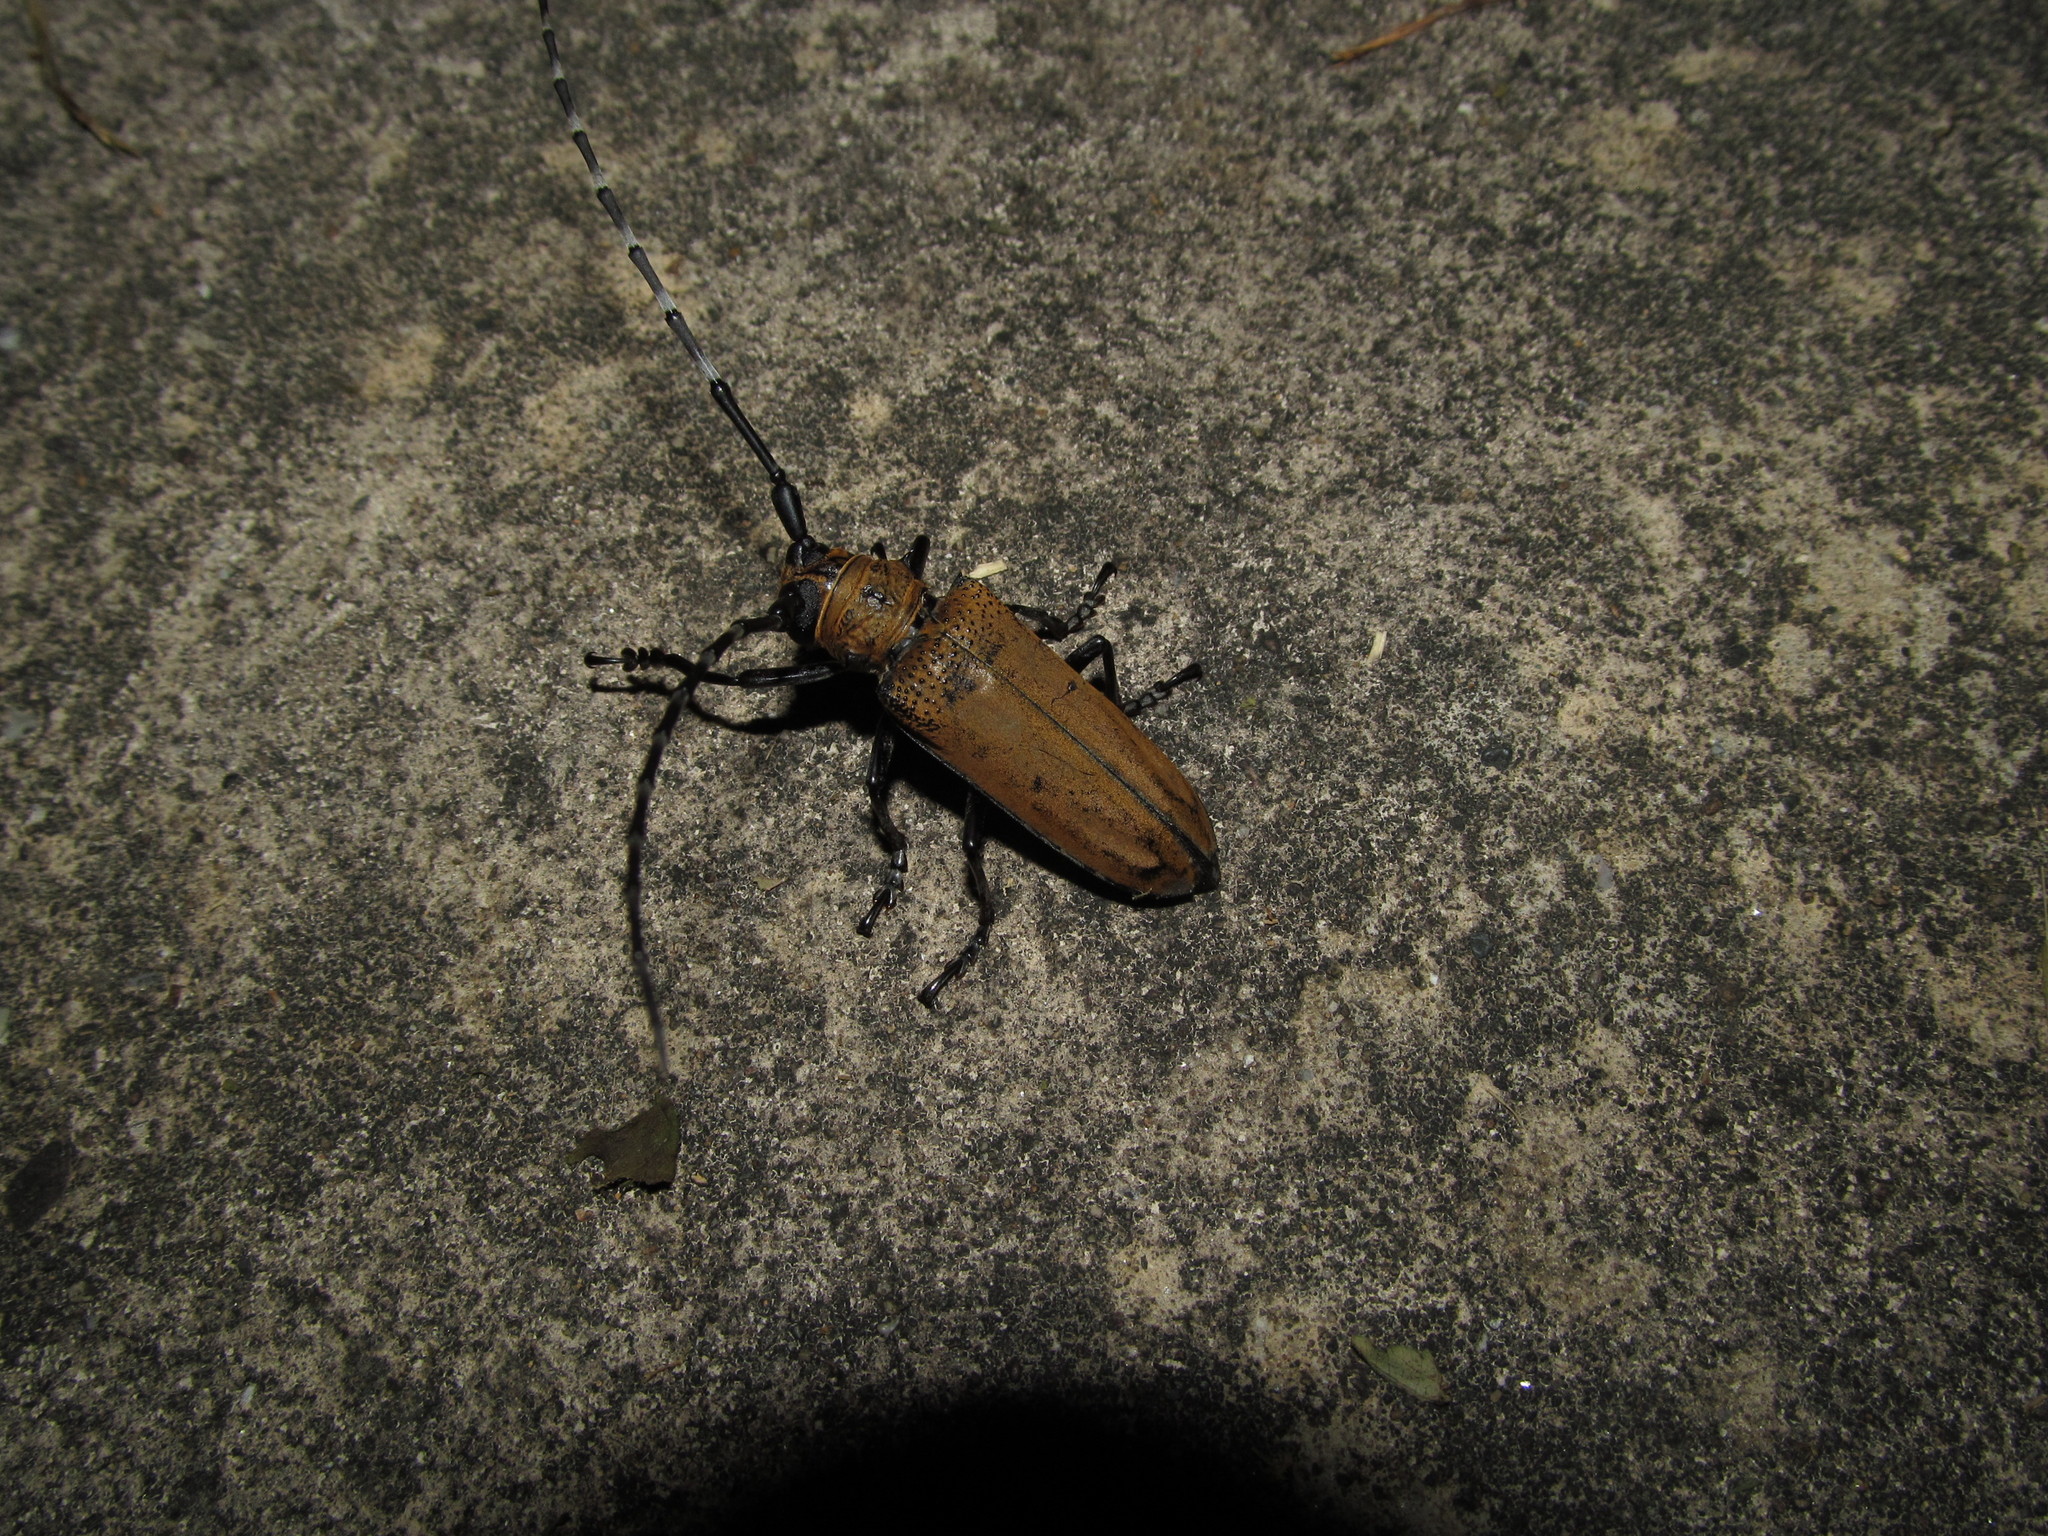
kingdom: Animalia
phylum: Arthropoda
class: Insecta
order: Coleoptera
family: Cerambycidae
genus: Apriona
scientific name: Apriona germarii
